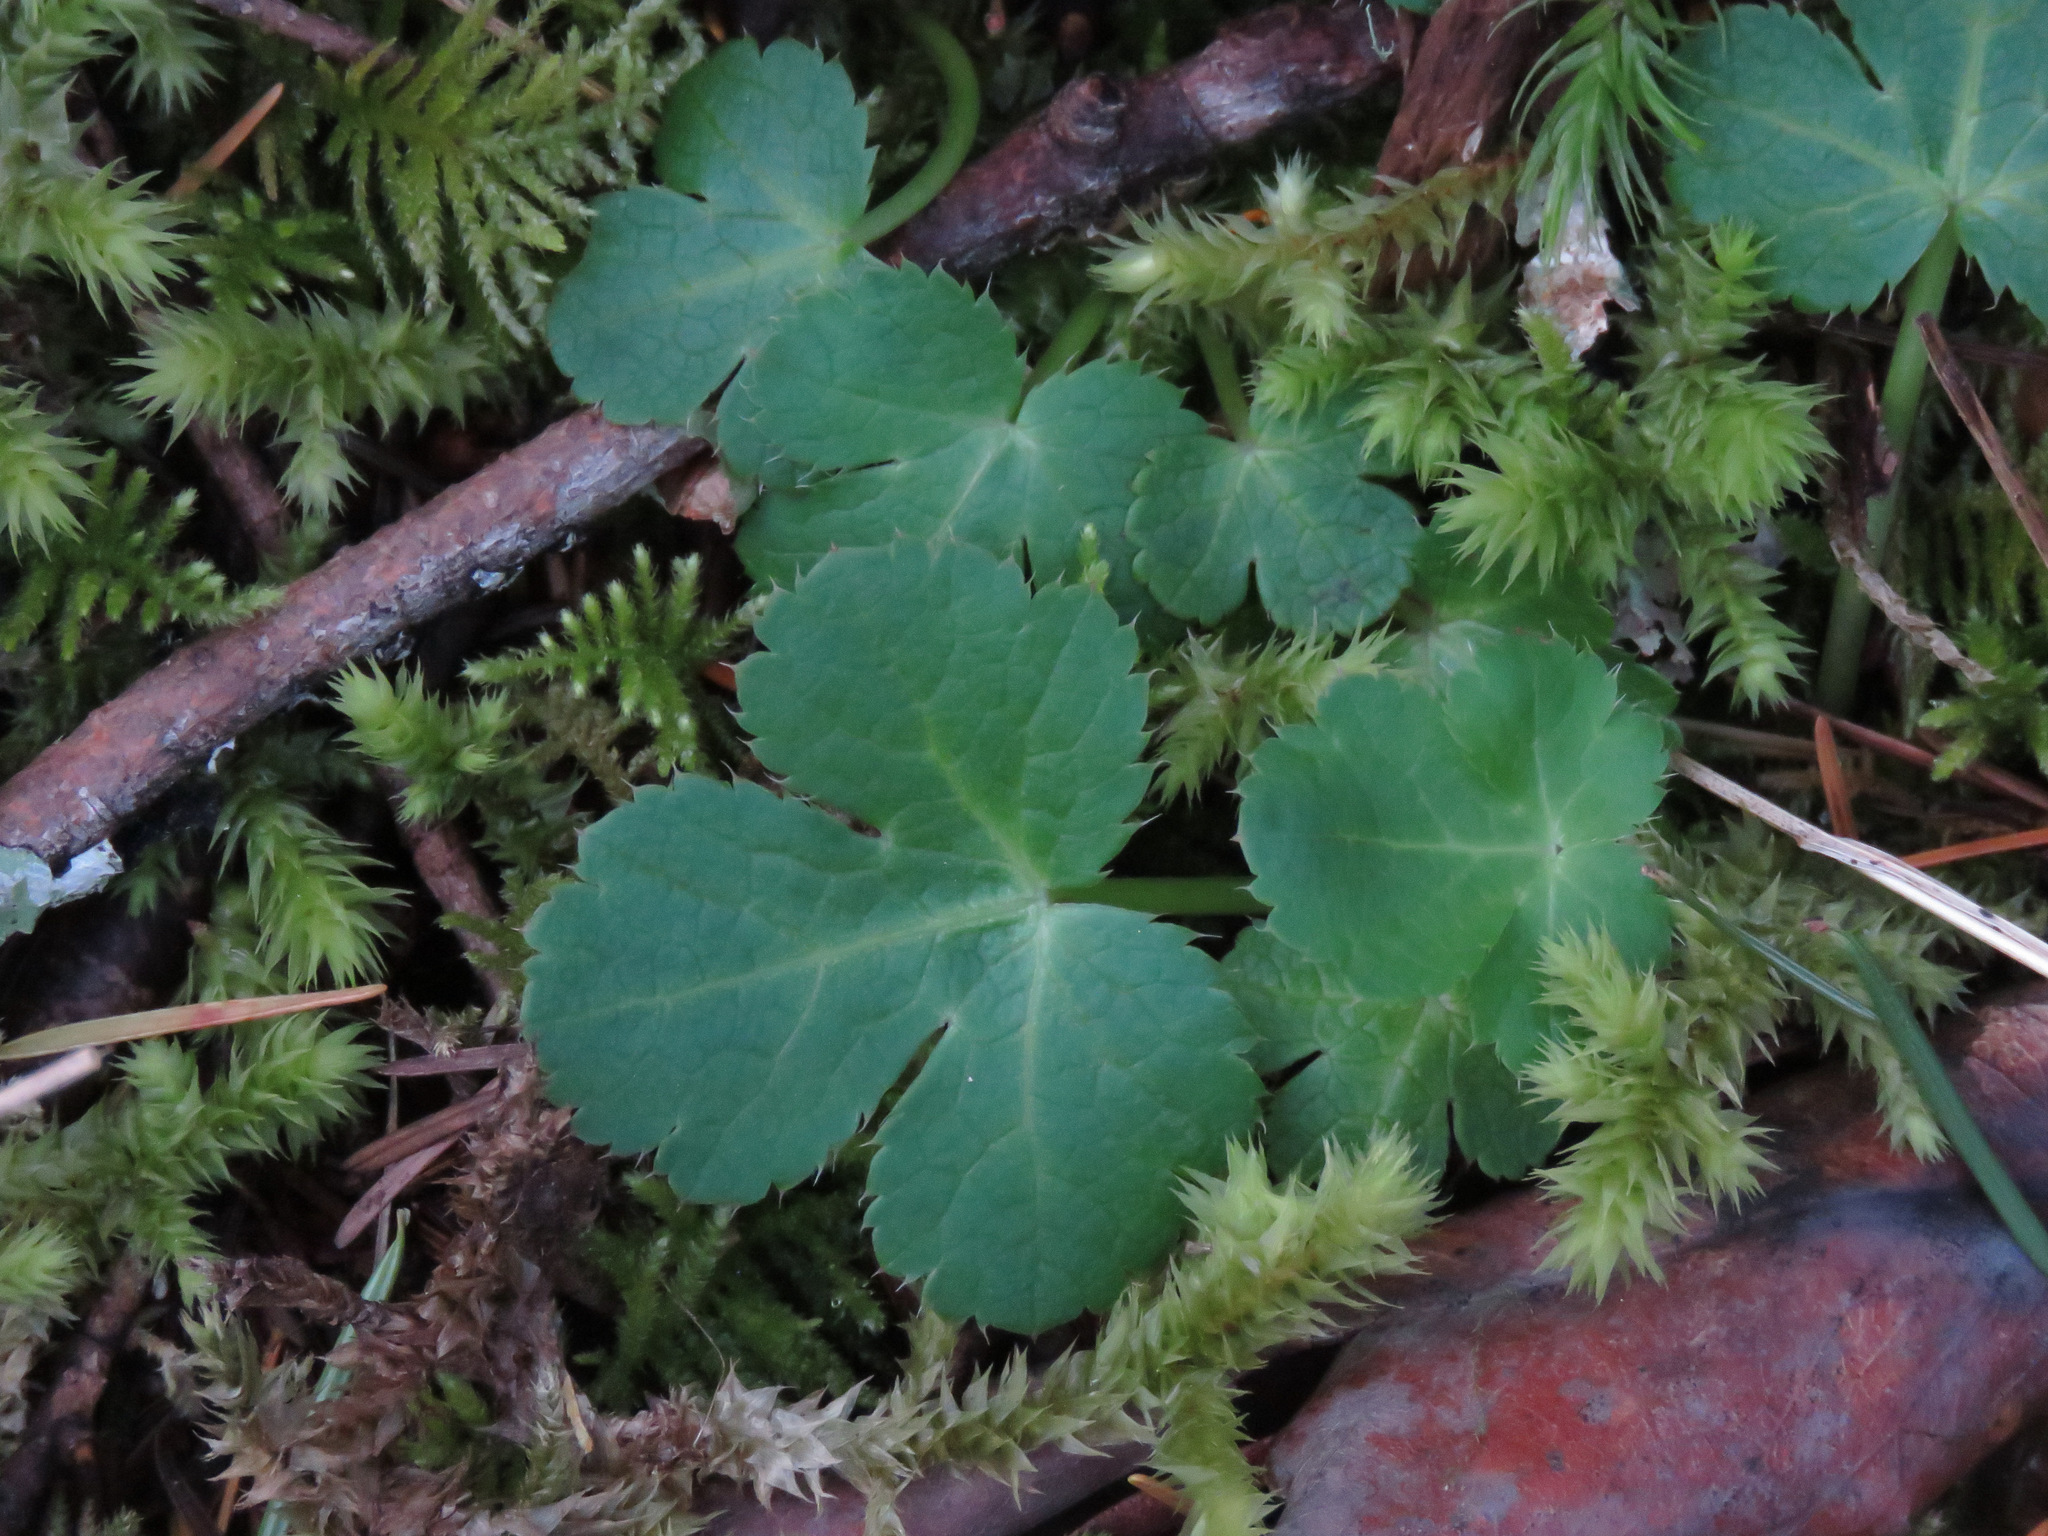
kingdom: Plantae
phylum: Tracheophyta
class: Magnoliopsida
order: Apiales
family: Apiaceae
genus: Sanicula
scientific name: Sanicula crassicaulis
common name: Western snakeroot
